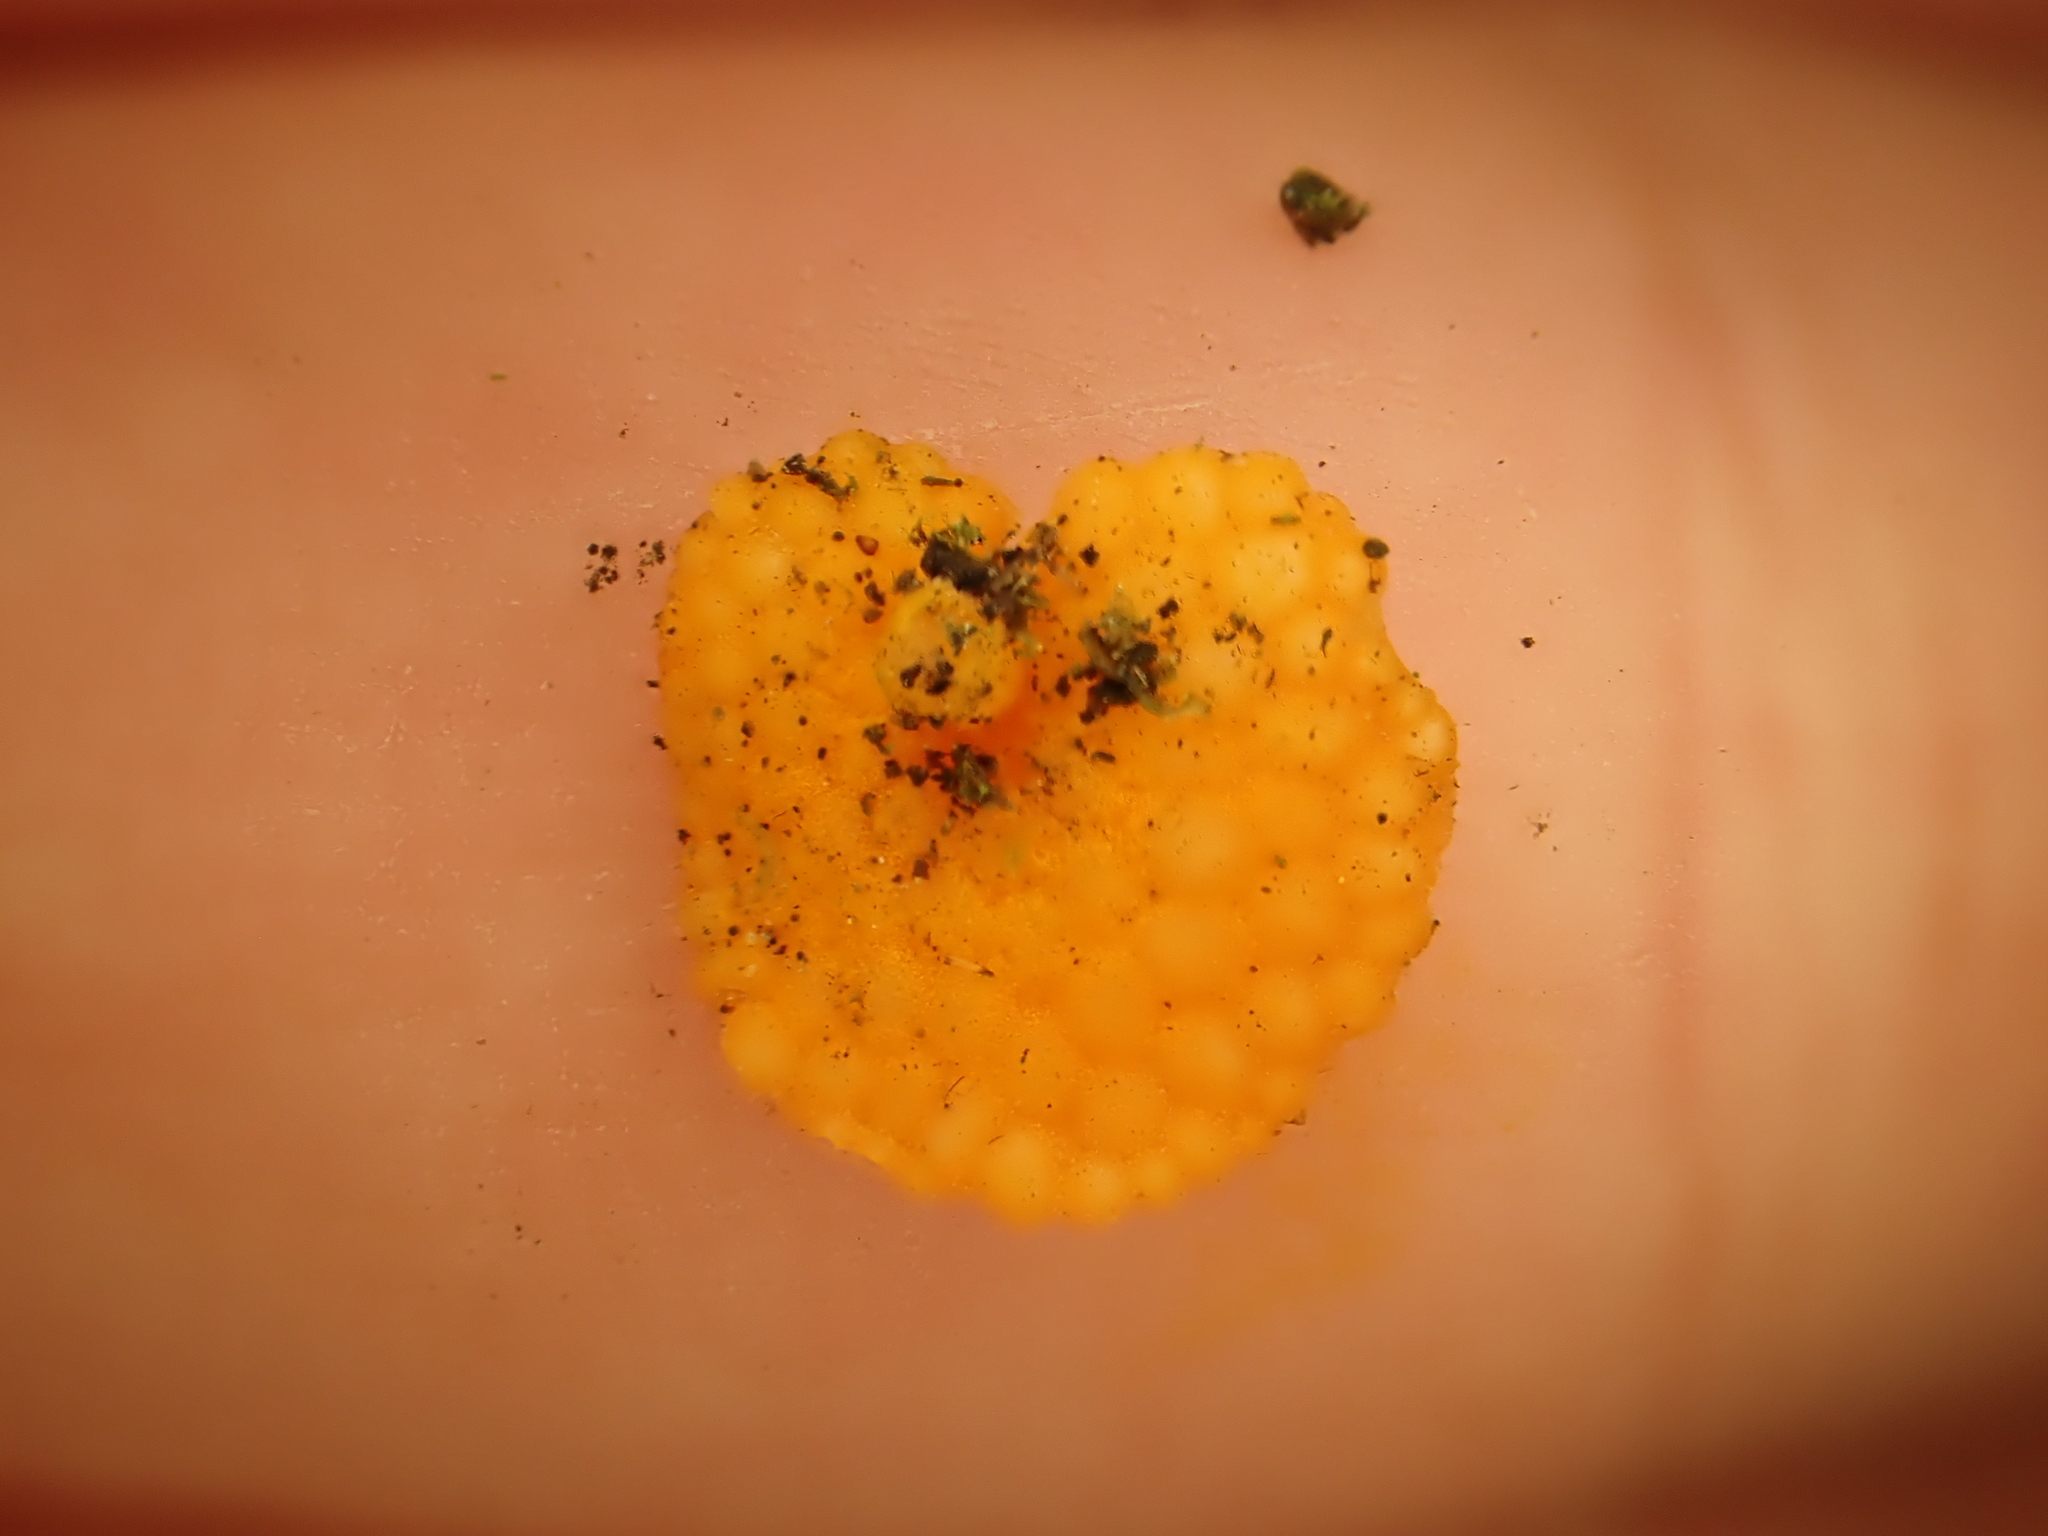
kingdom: Fungi
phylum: Basidiomycota
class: Agaricomycetes
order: Agaricales
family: Mycenaceae
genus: Favolaschia
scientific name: Favolaschia claudopus
